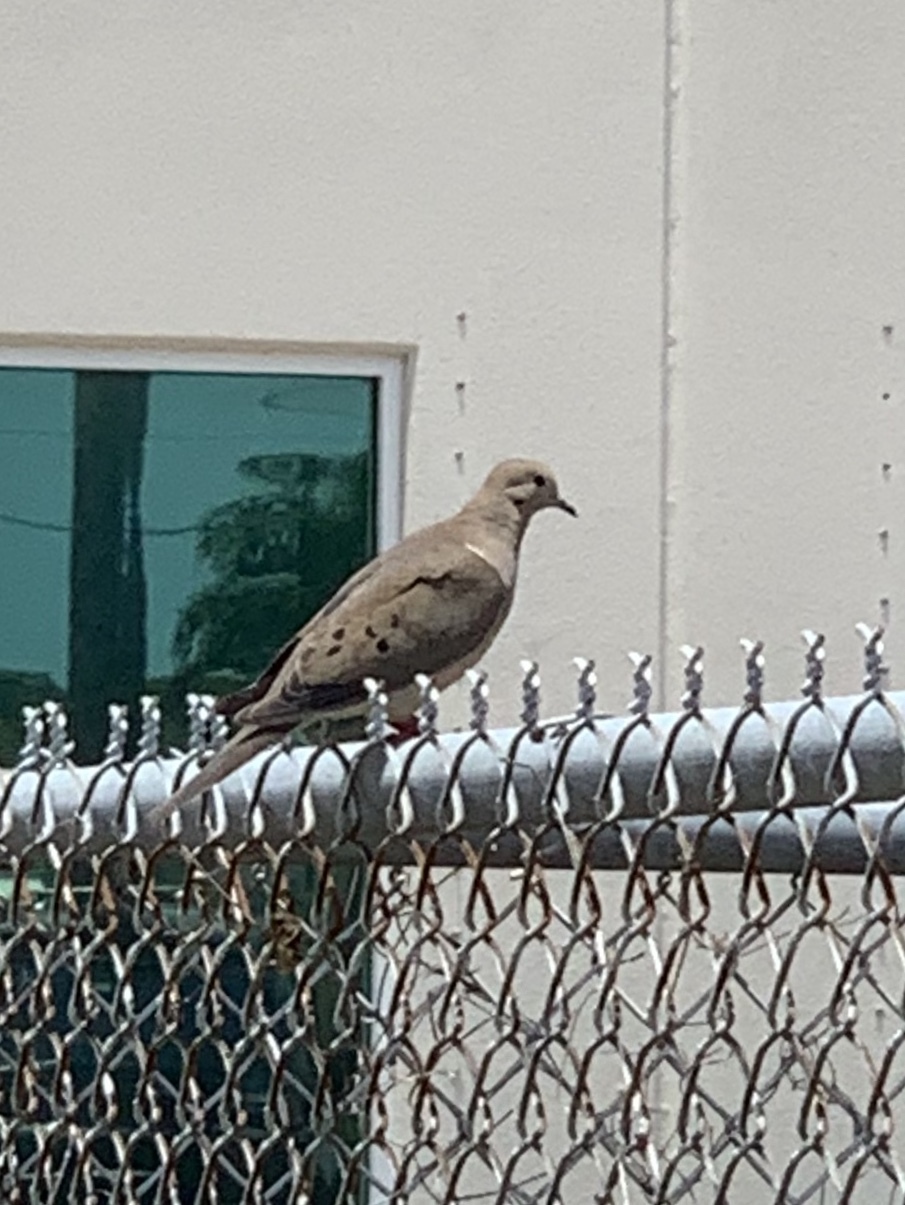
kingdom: Animalia
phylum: Chordata
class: Aves
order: Columbiformes
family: Columbidae
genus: Zenaida
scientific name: Zenaida macroura
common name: Mourning dove
